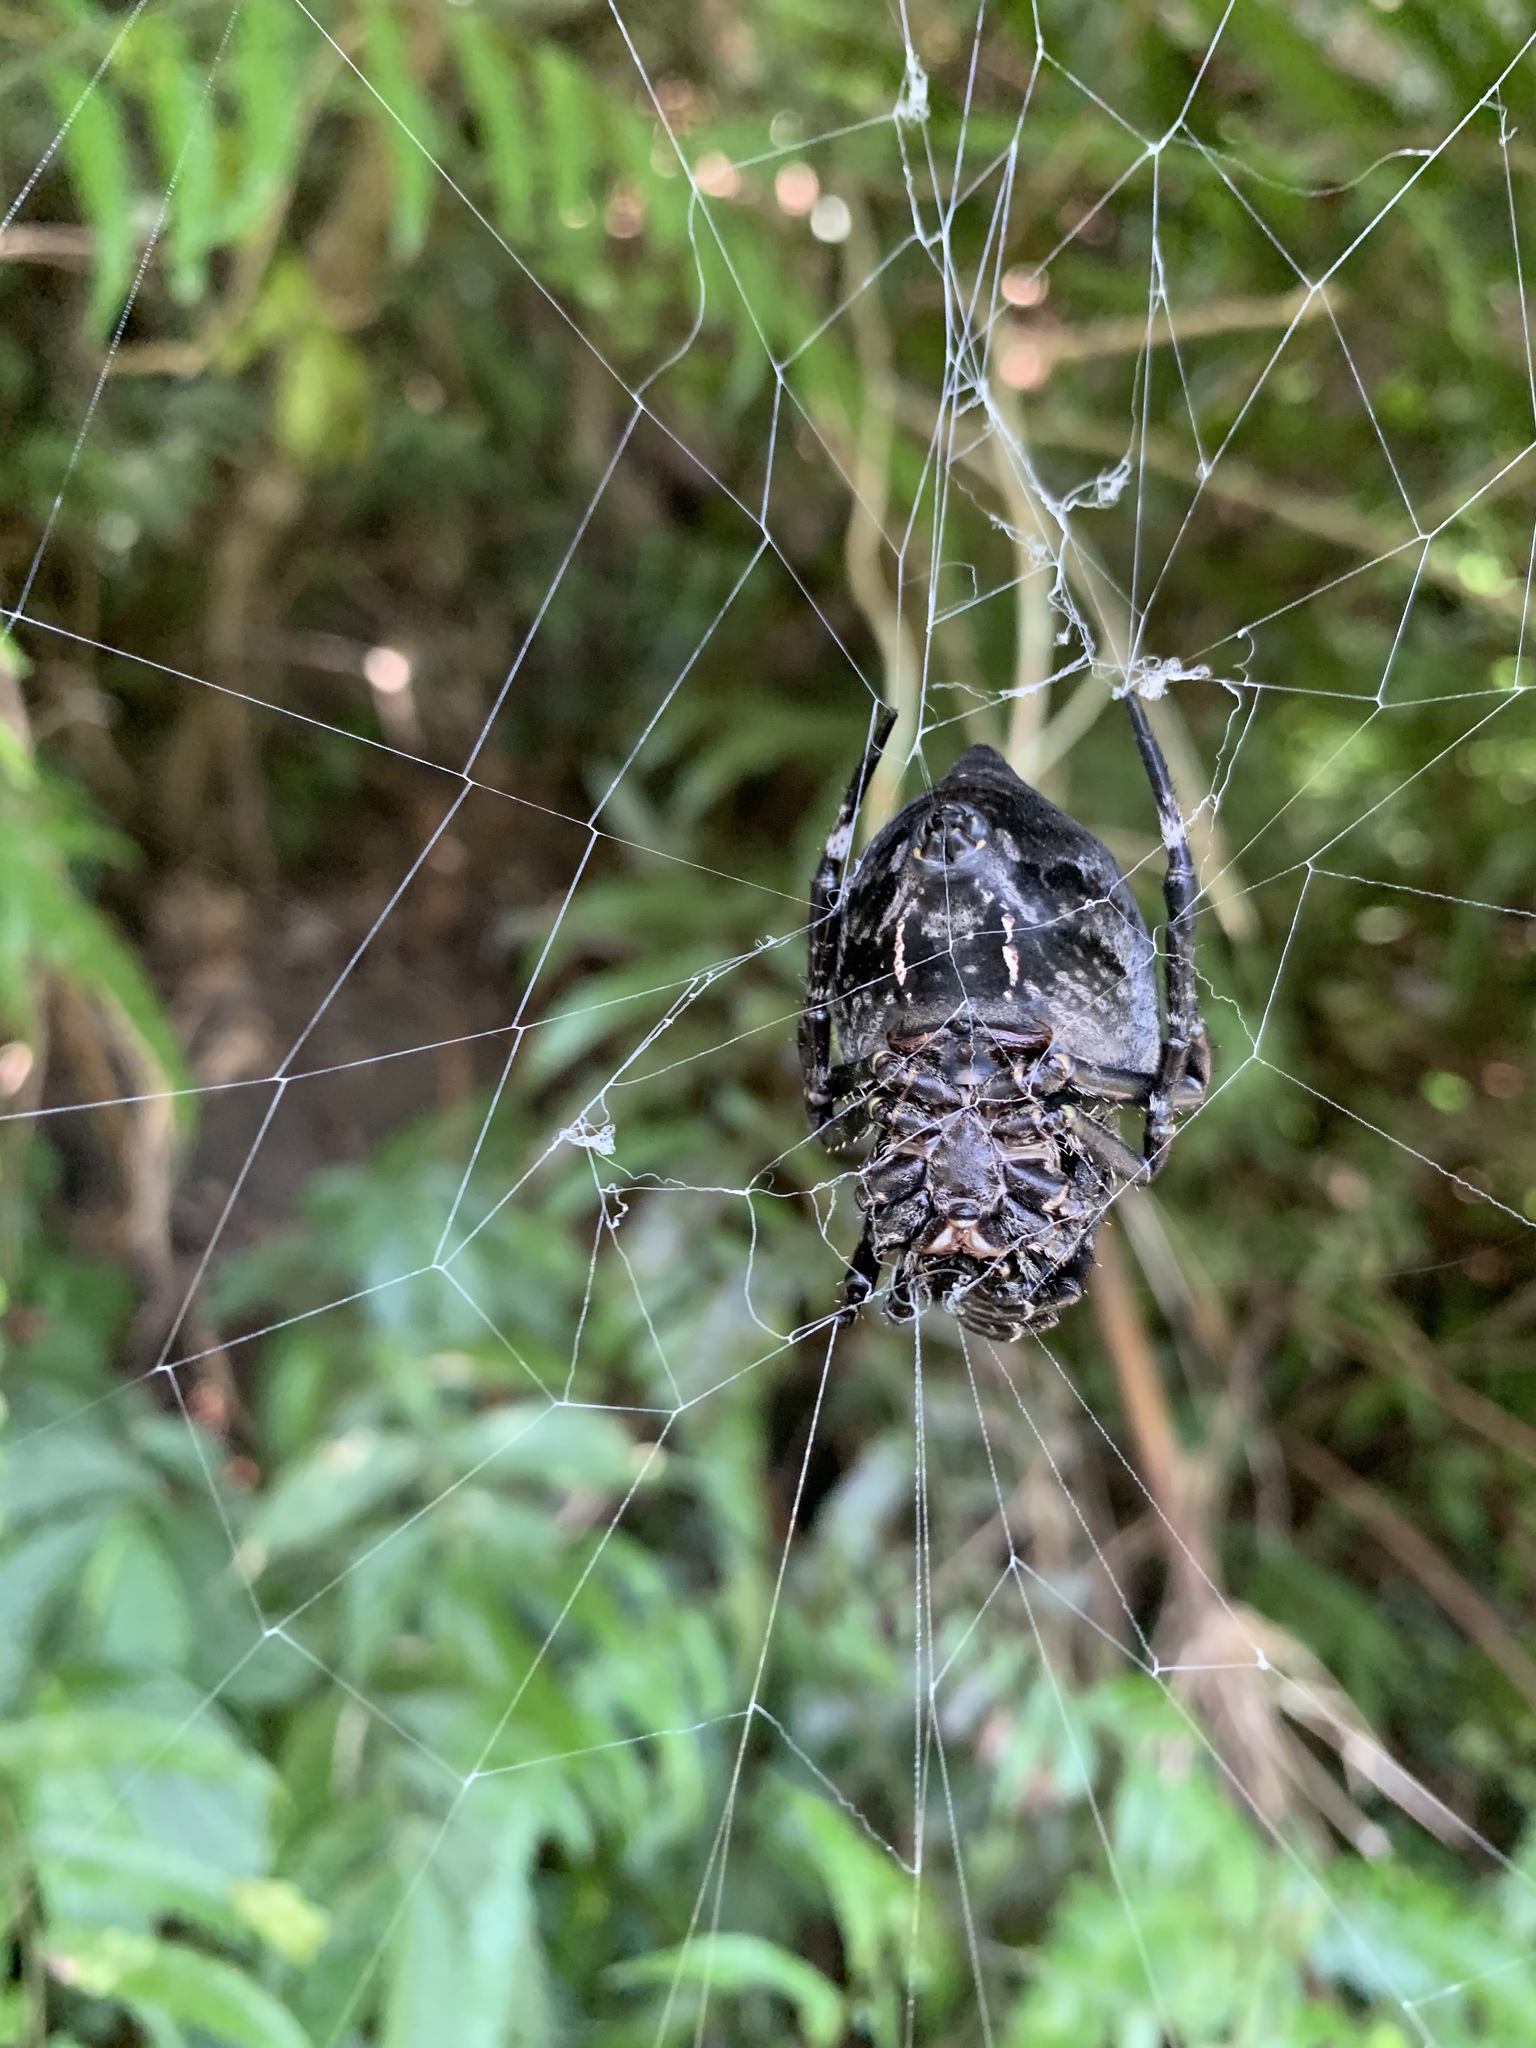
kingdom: Animalia
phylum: Arthropoda
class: Arachnida
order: Araneae
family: Araneidae
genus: Parawixia
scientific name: Parawixia dehaani
